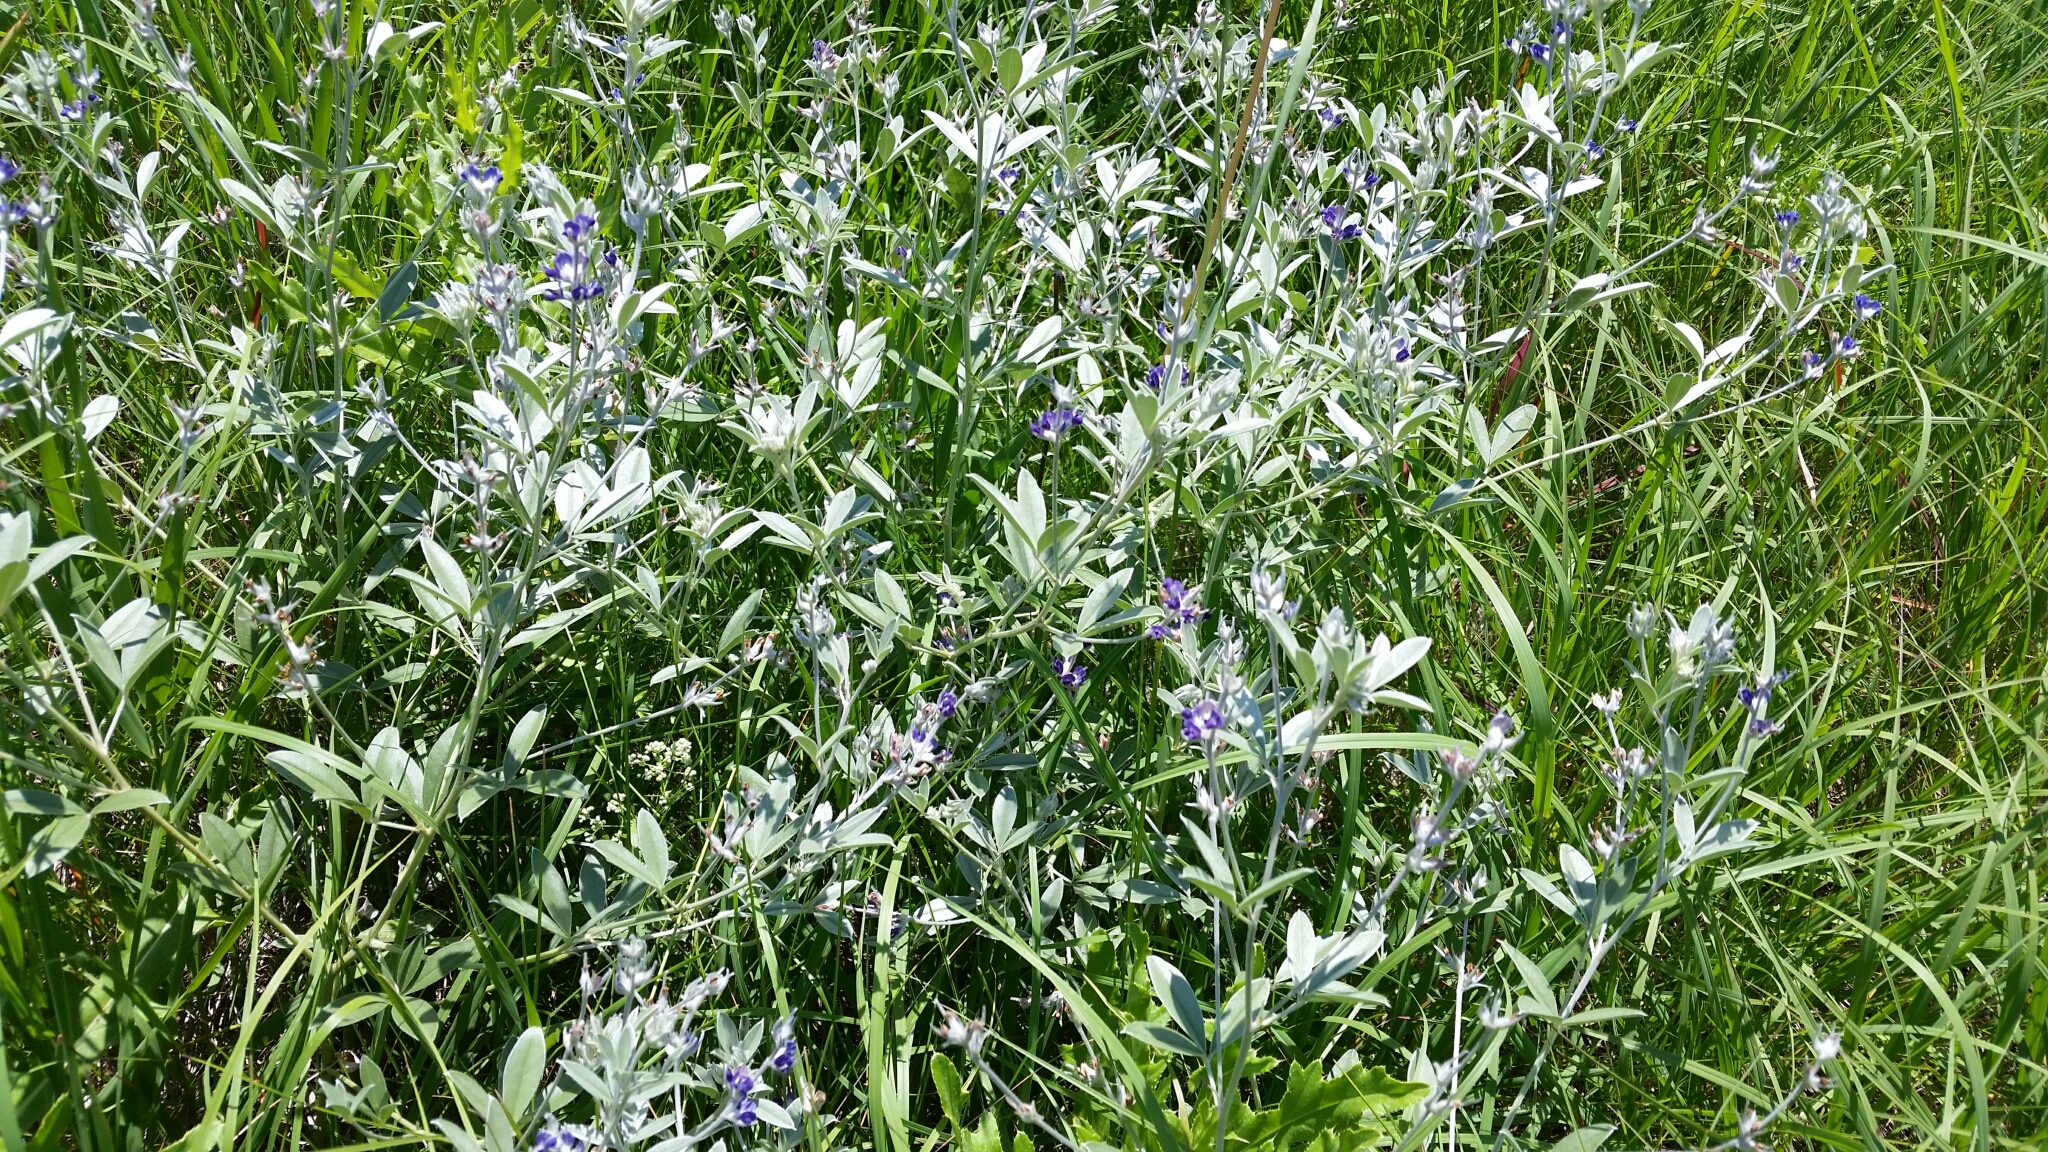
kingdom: Plantae
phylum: Tracheophyta
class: Magnoliopsida
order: Fabales
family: Fabaceae
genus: Pediomelum
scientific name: Pediomelum argophyllum
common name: Silver-leaved indian breadroot
